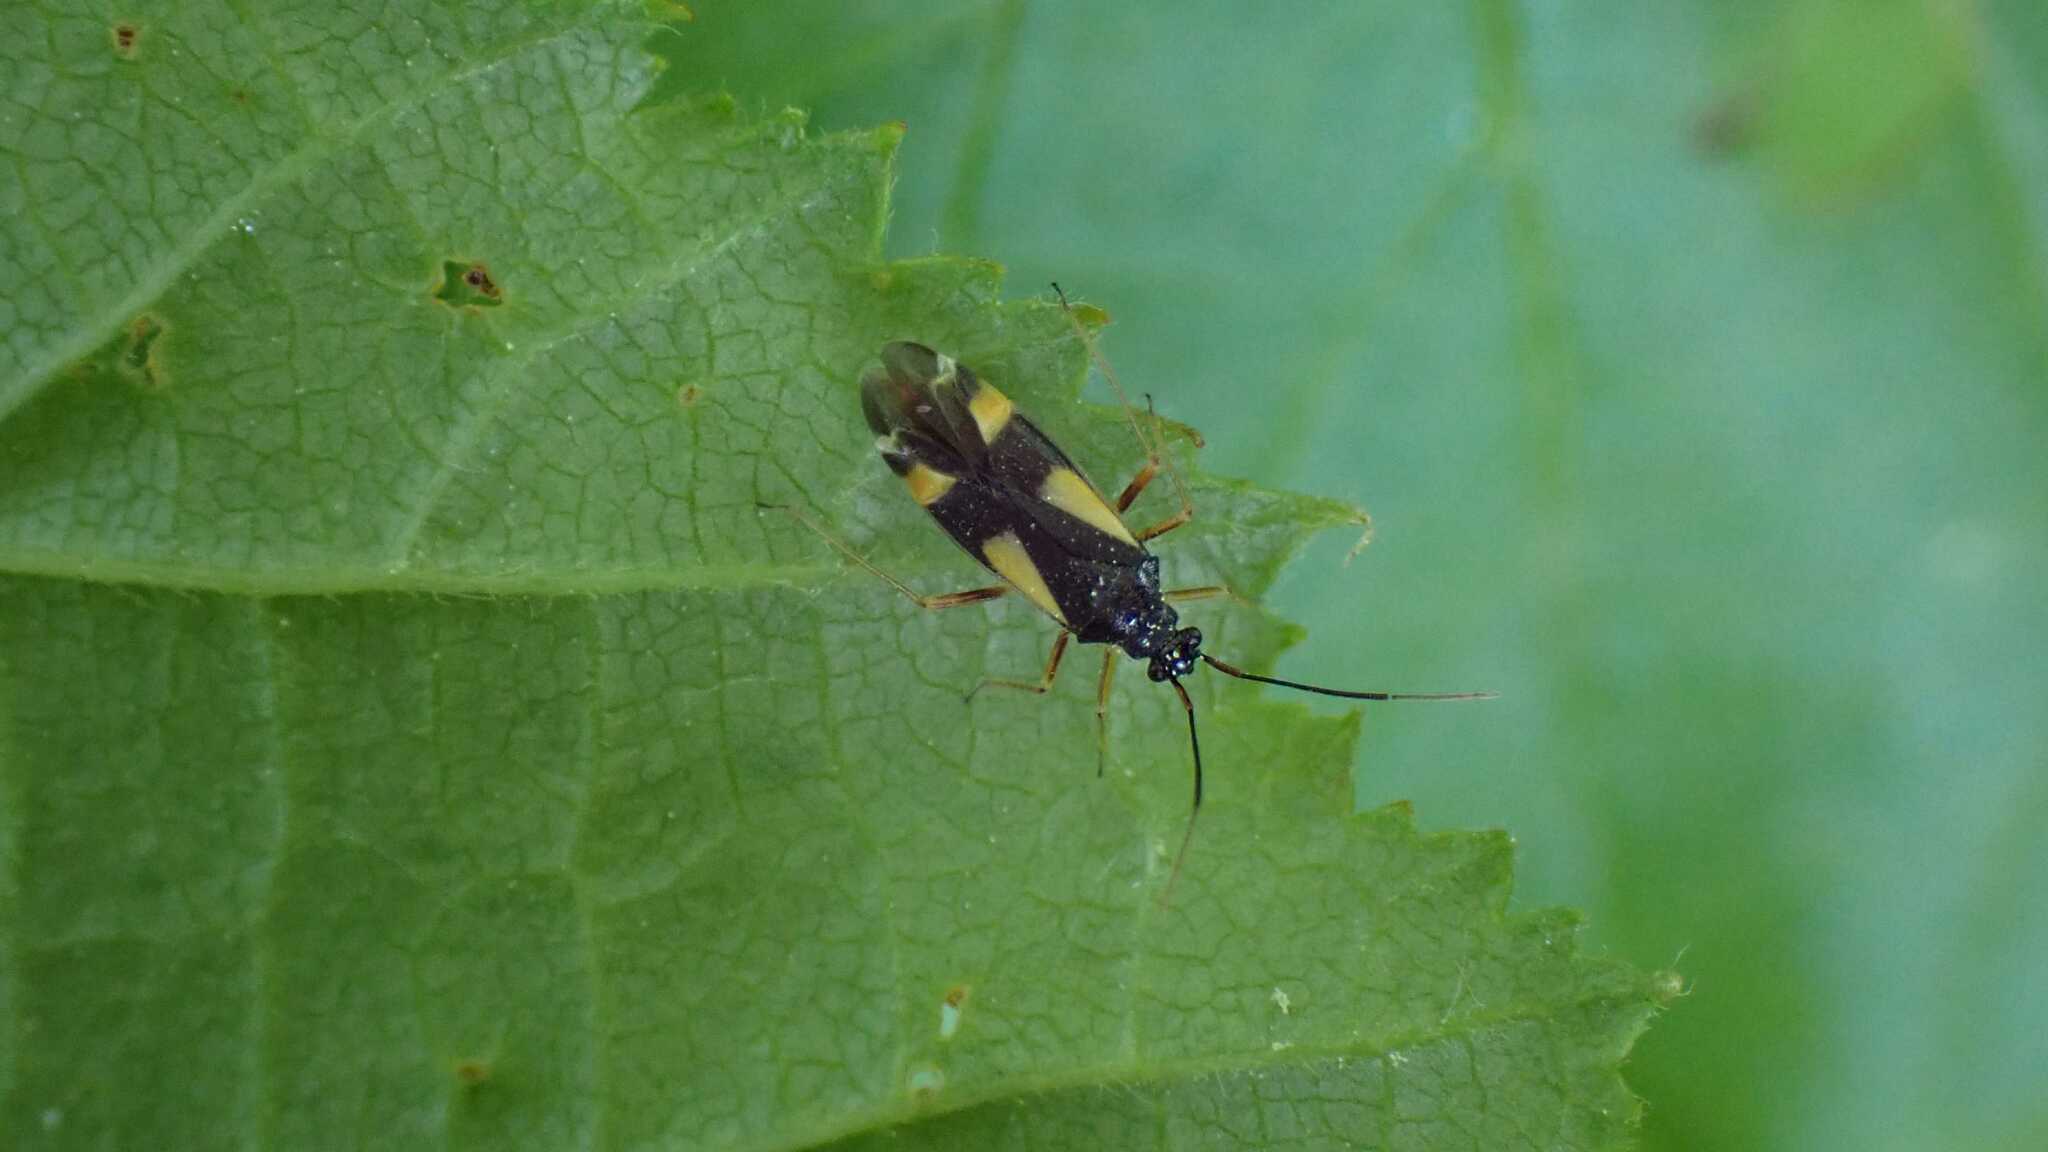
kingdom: Animalia
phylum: Arthropoda
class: Insecta
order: Hemiptera
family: Miridae
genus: Dryophilocoris
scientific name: Dryophilocoris flavoquadrimaculatus
